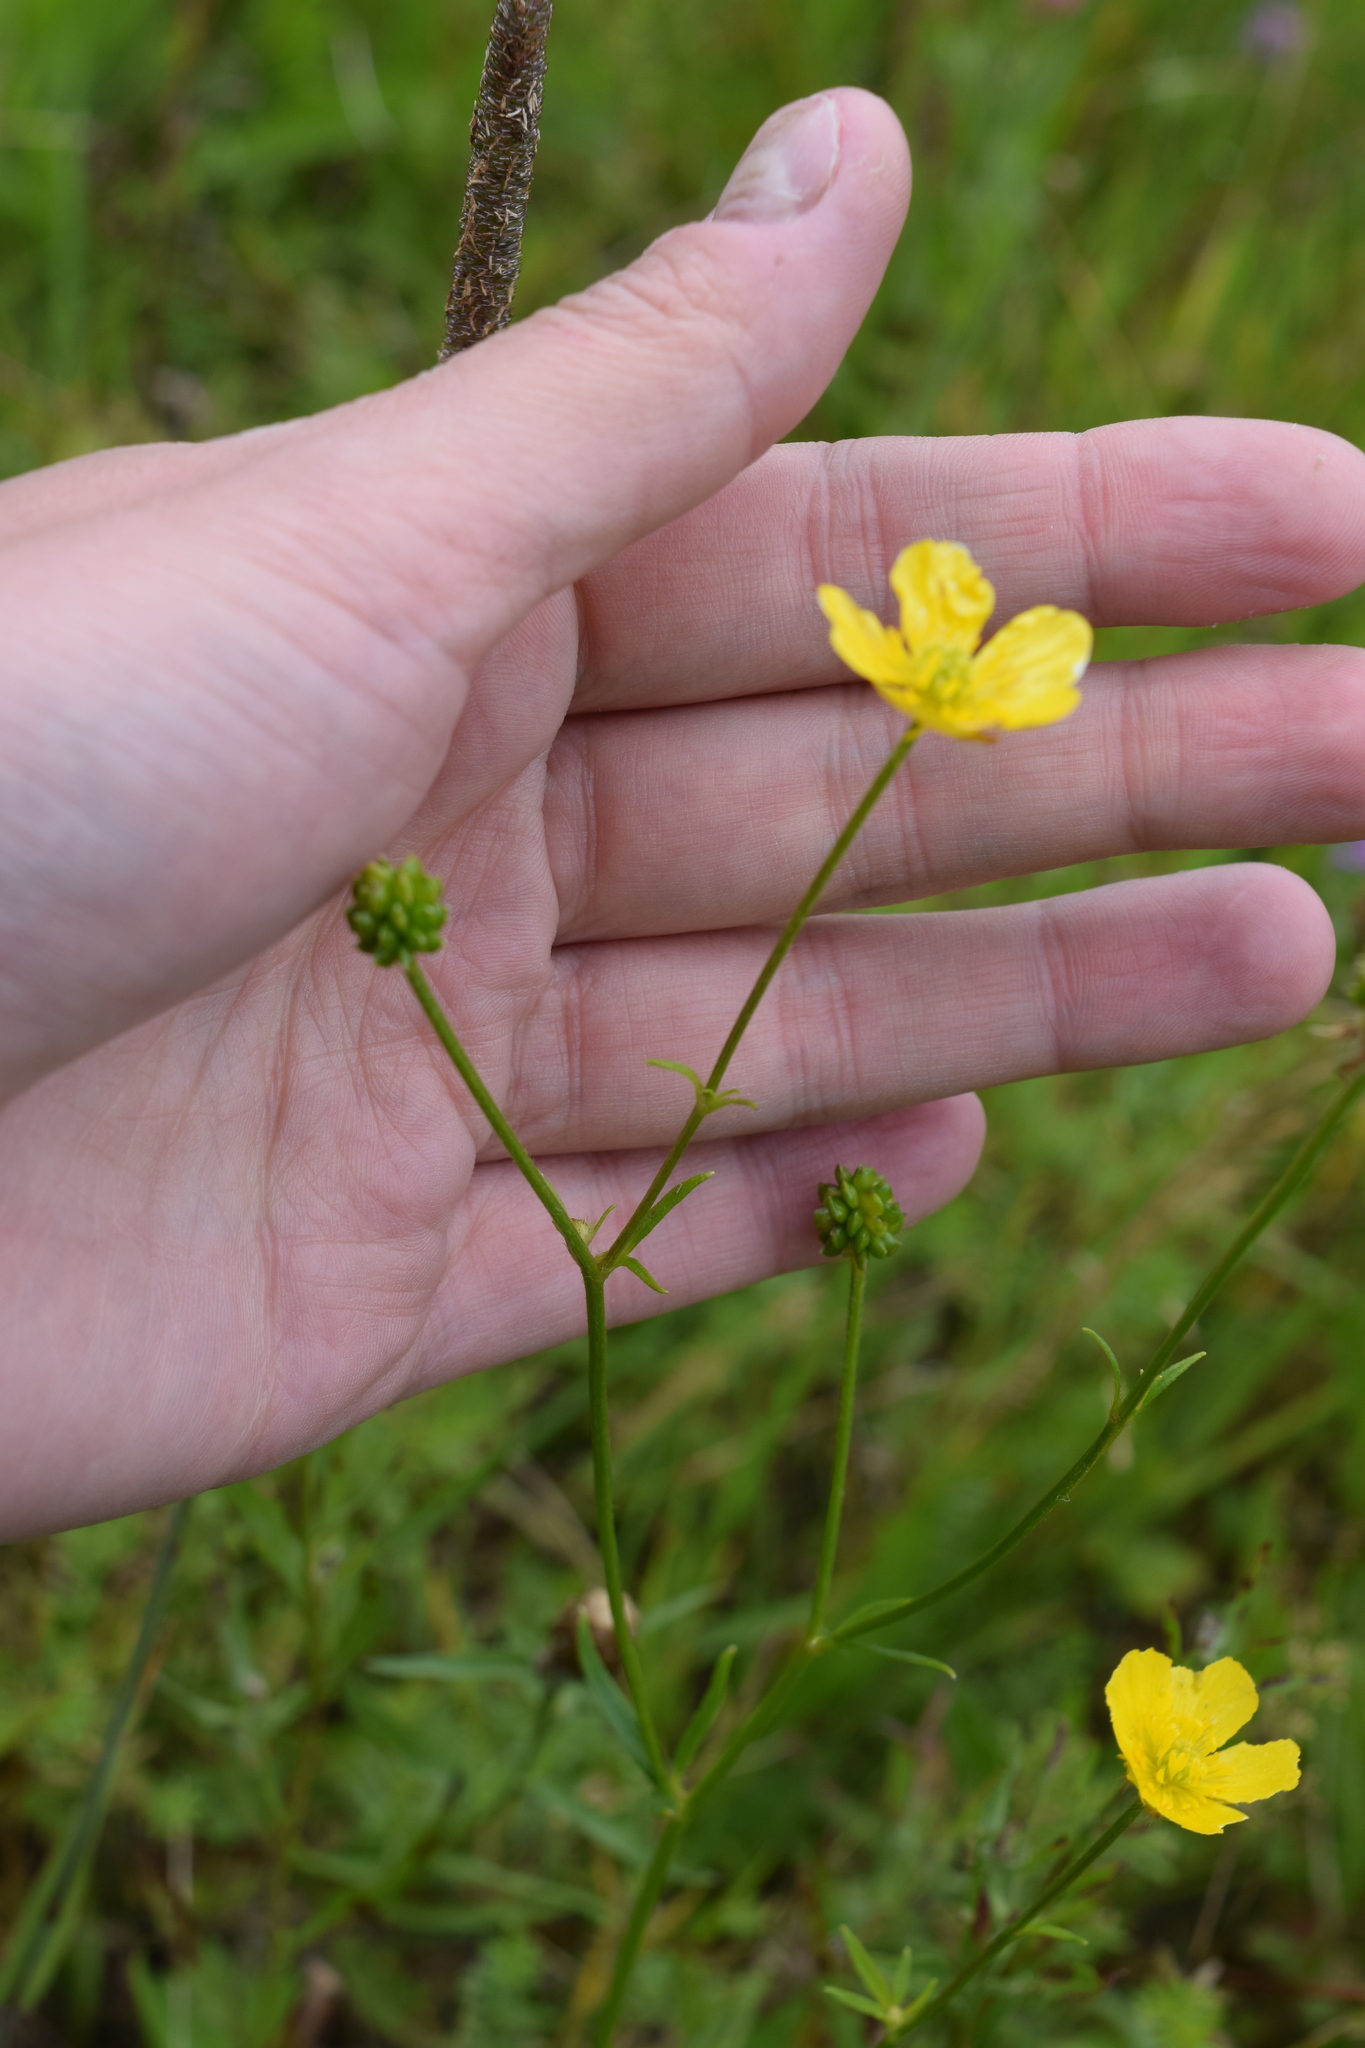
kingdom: Plantae
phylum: Tracheophyta
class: Magnoliopsida
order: Ranunculales
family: Ranunculaceae
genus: Ranunculus
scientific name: Ranunculus polyanthemos
